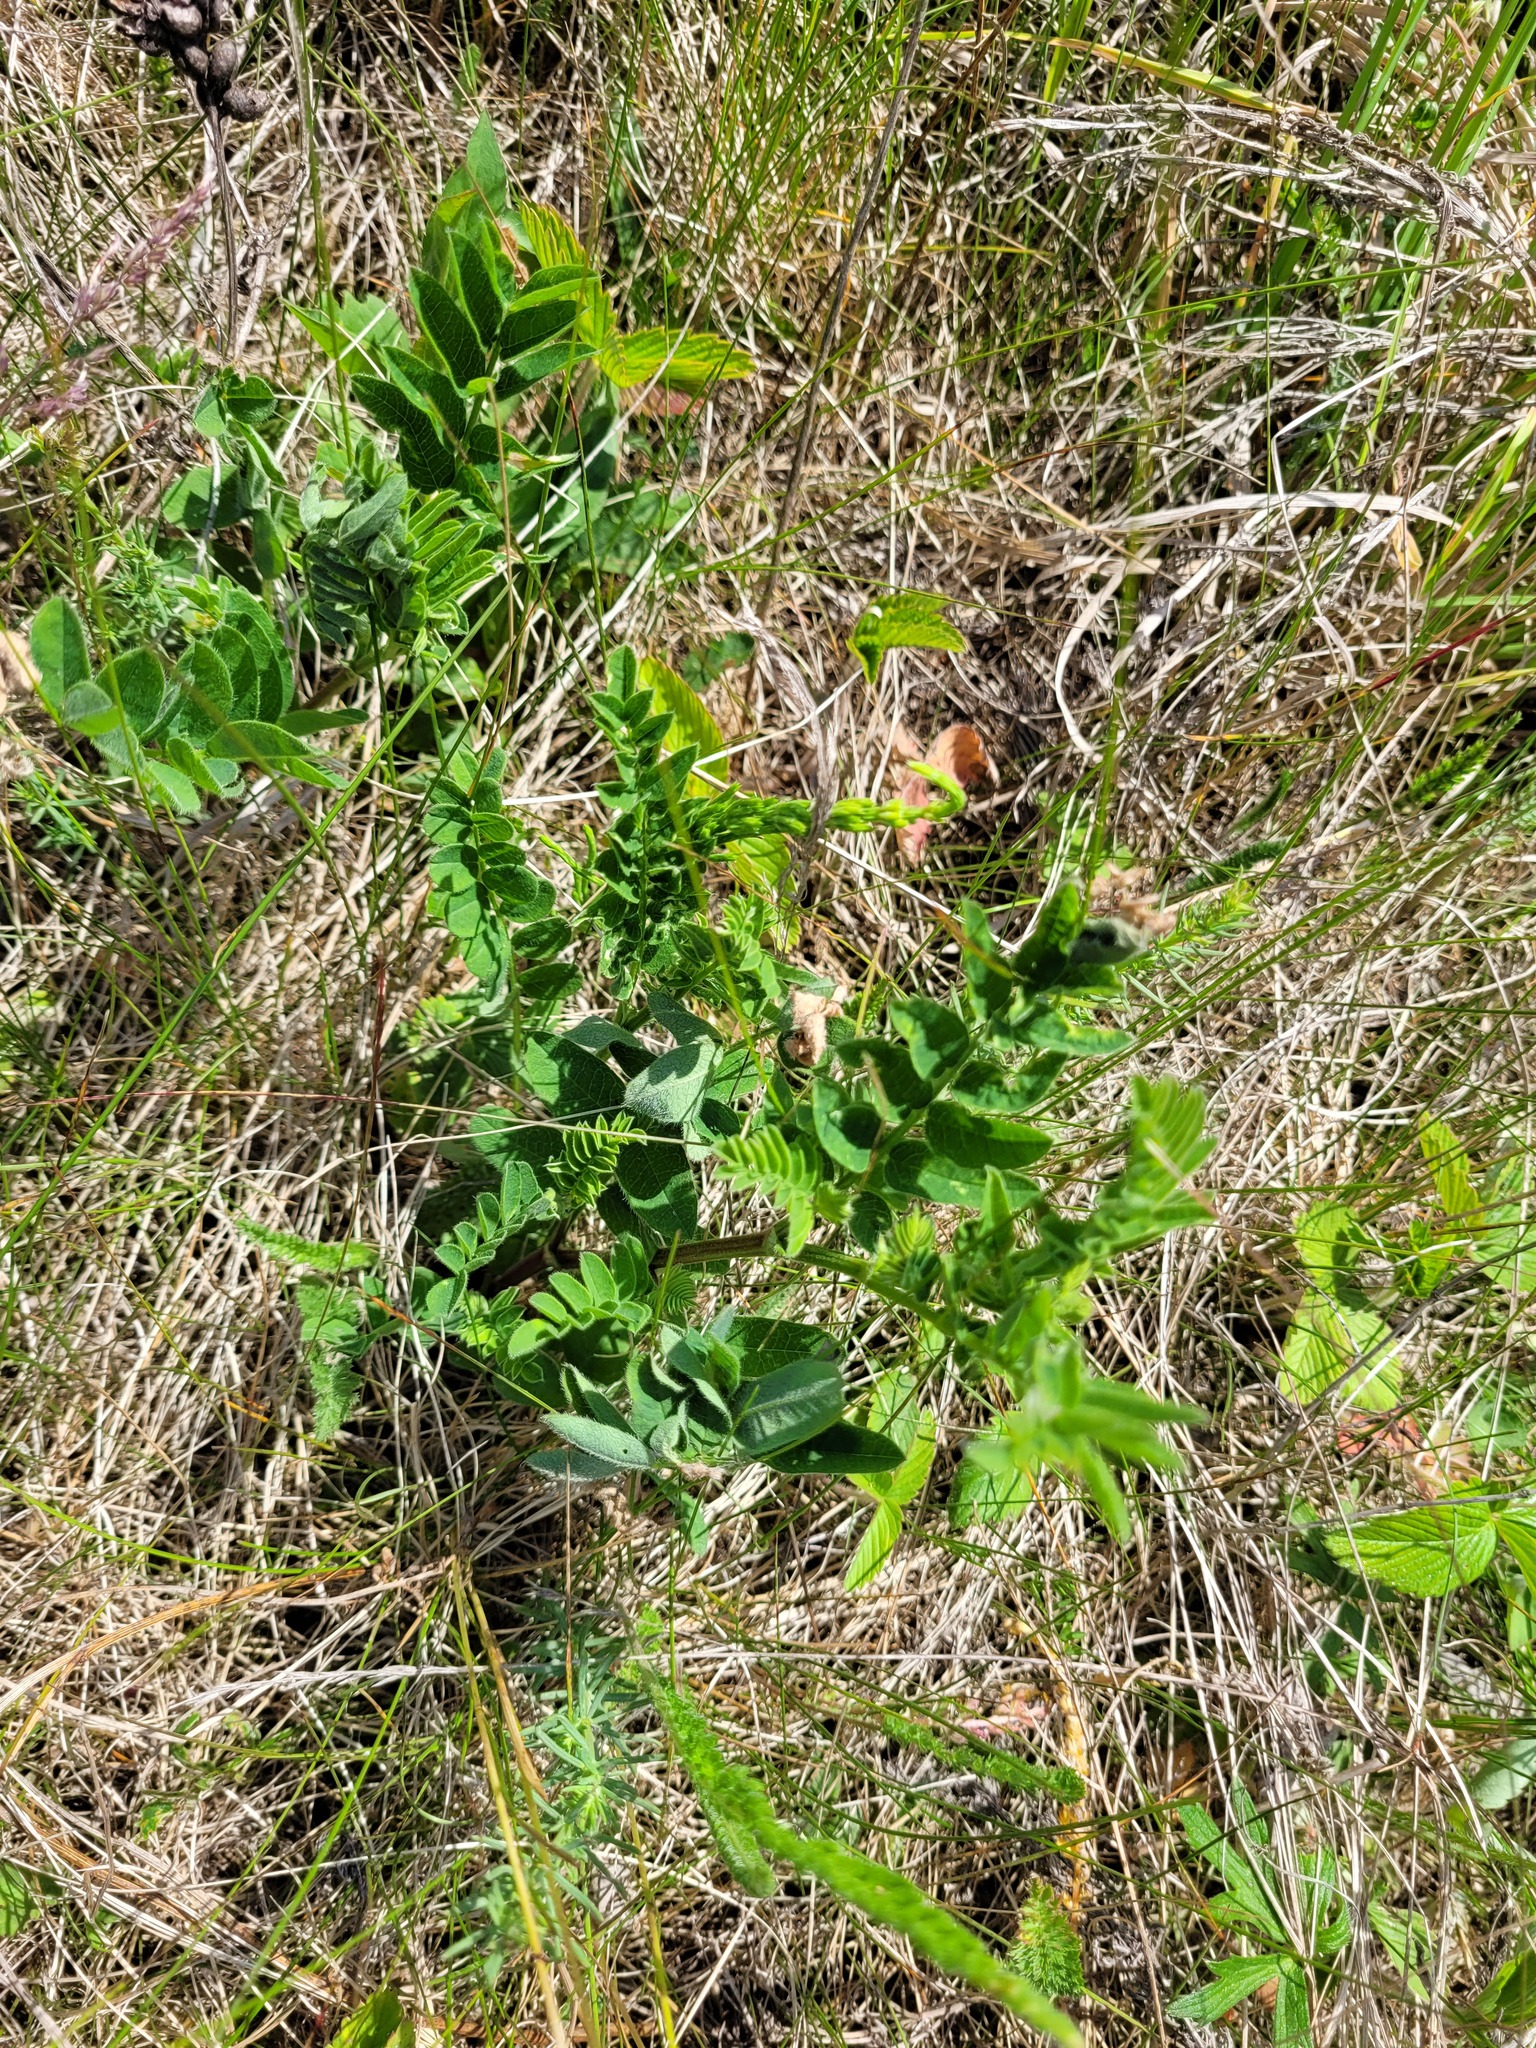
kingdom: Plantae
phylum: Tracheophyta
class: Magnoliopsida
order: Fabales
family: Fabaceae
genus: Astragalus
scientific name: Astragalus cicer
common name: Chick-pea milk-vetch
